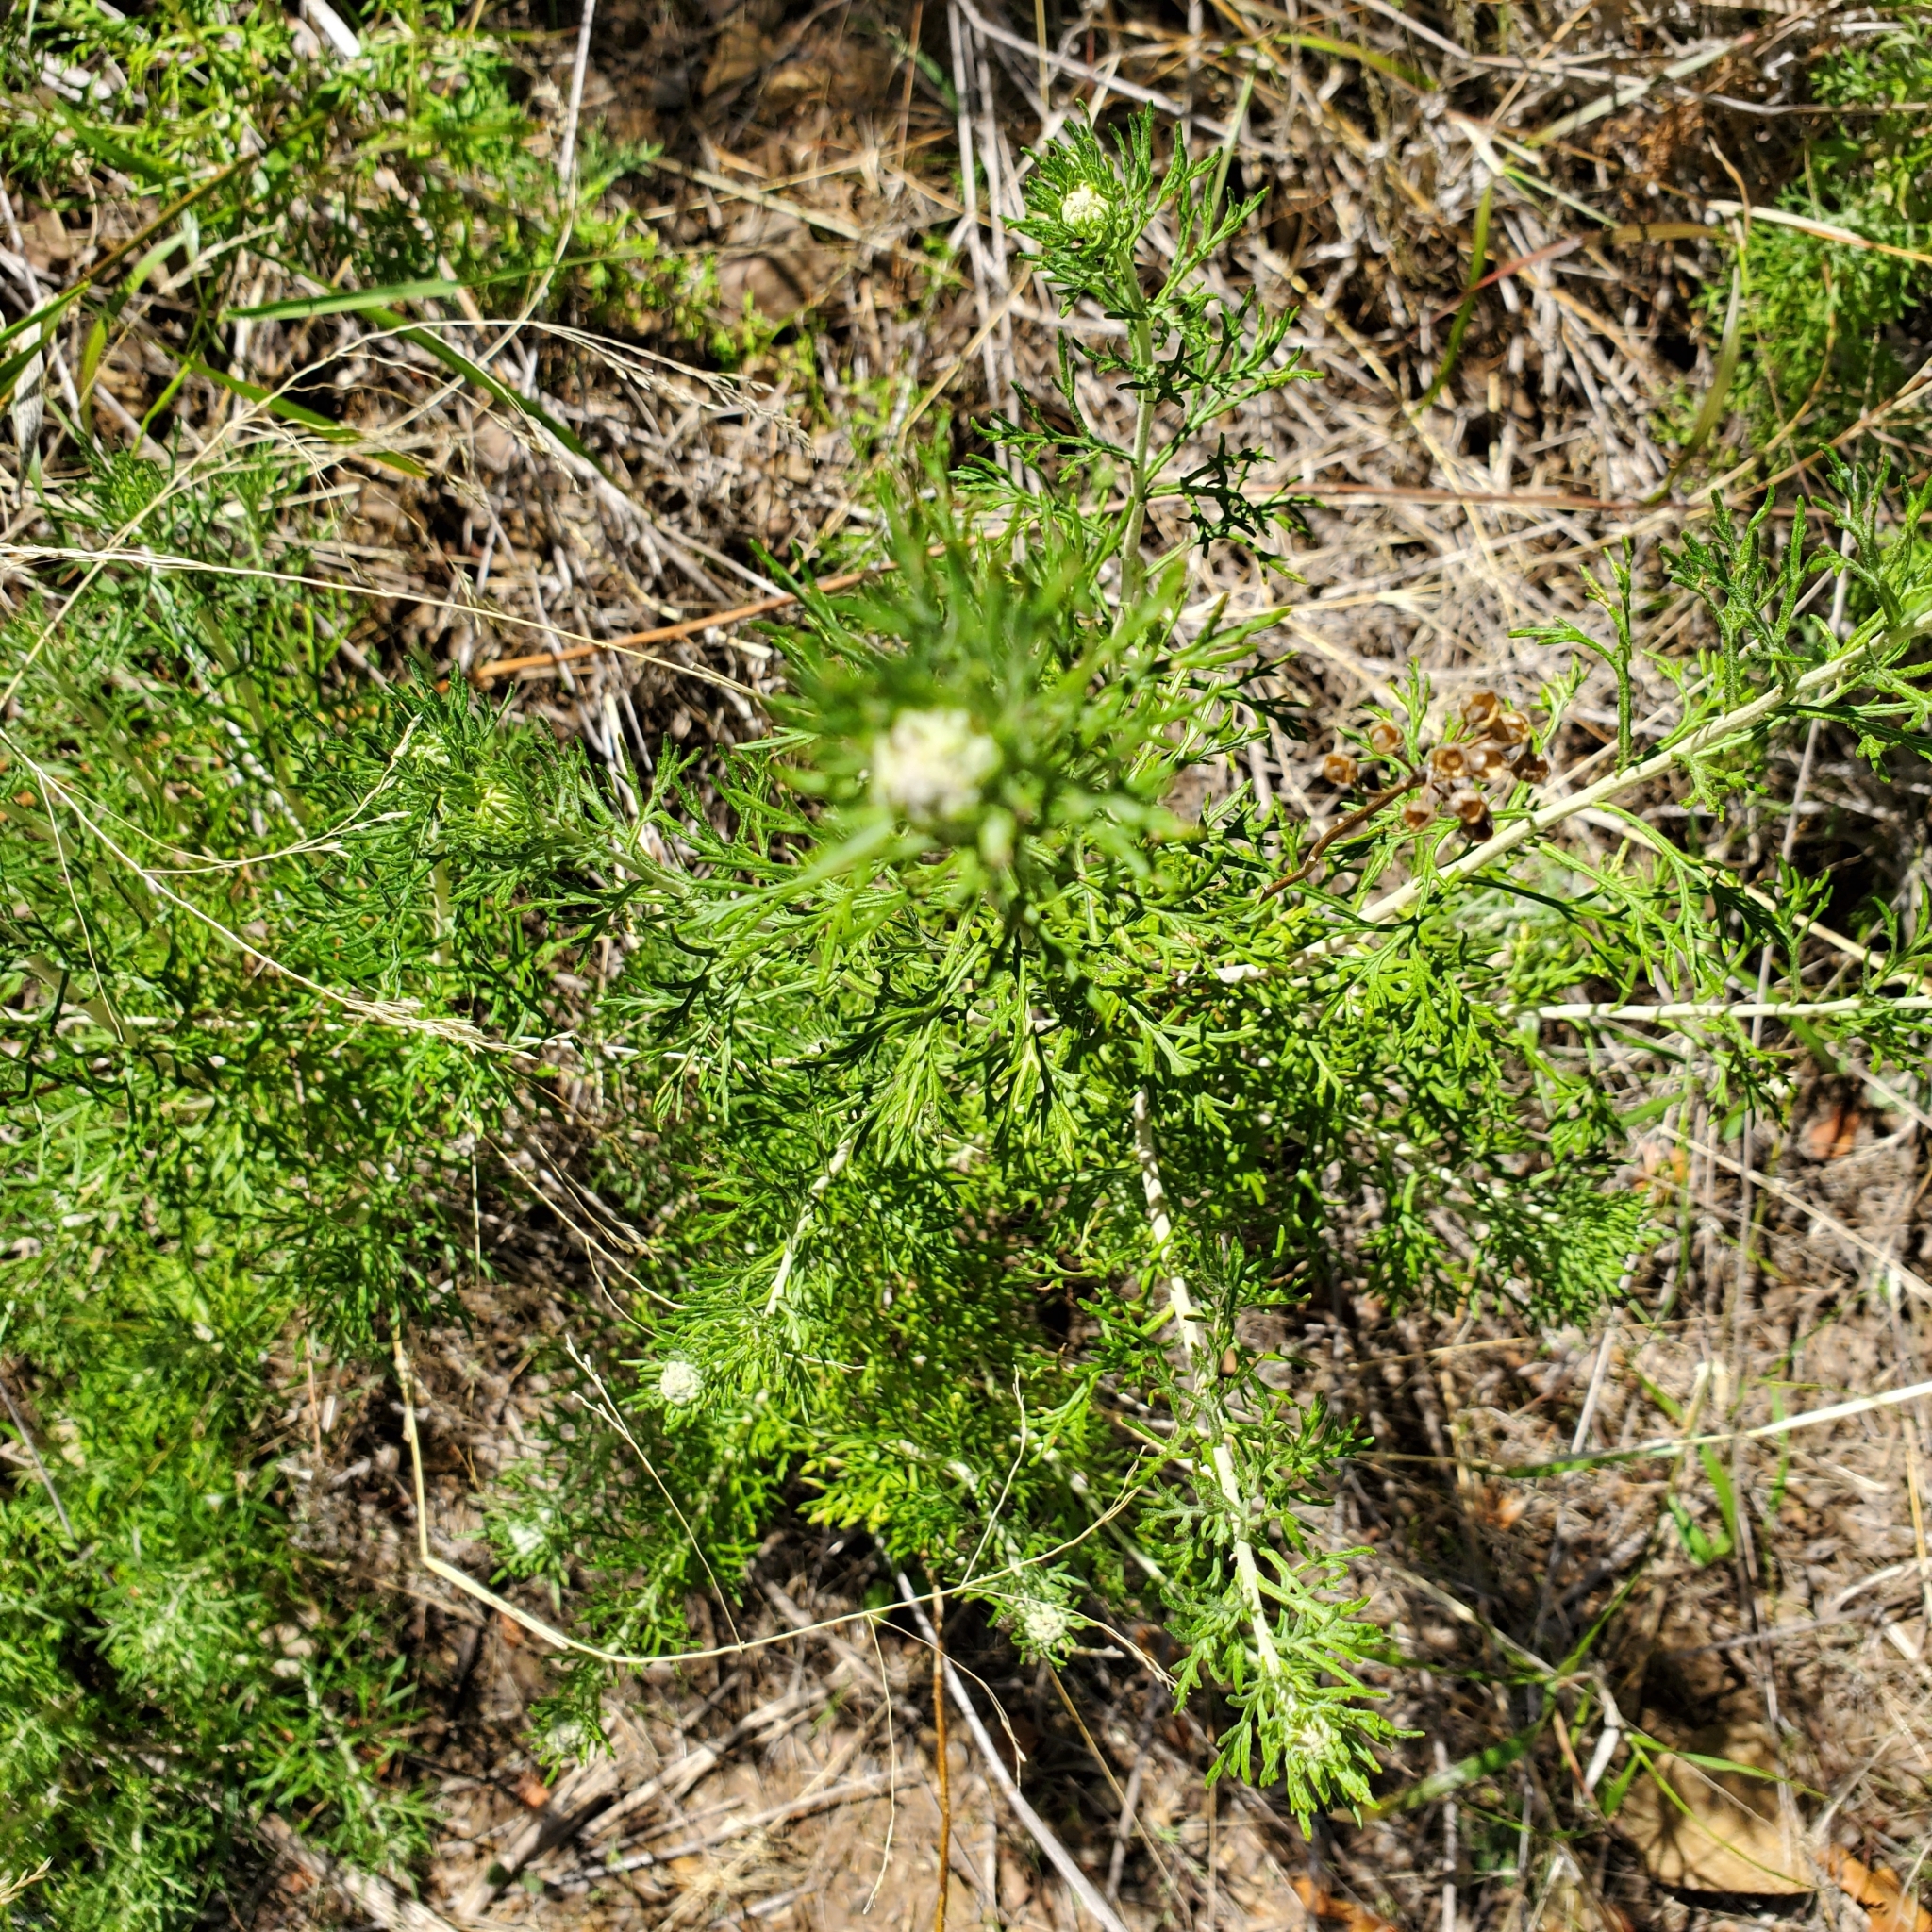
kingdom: Plantae
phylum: Tracheophyta
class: Magnoliopsida
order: Asterales
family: Asteraceae
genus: Eriophyllum
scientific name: Eriophyllum confertiflorum
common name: Golden-yarrow
